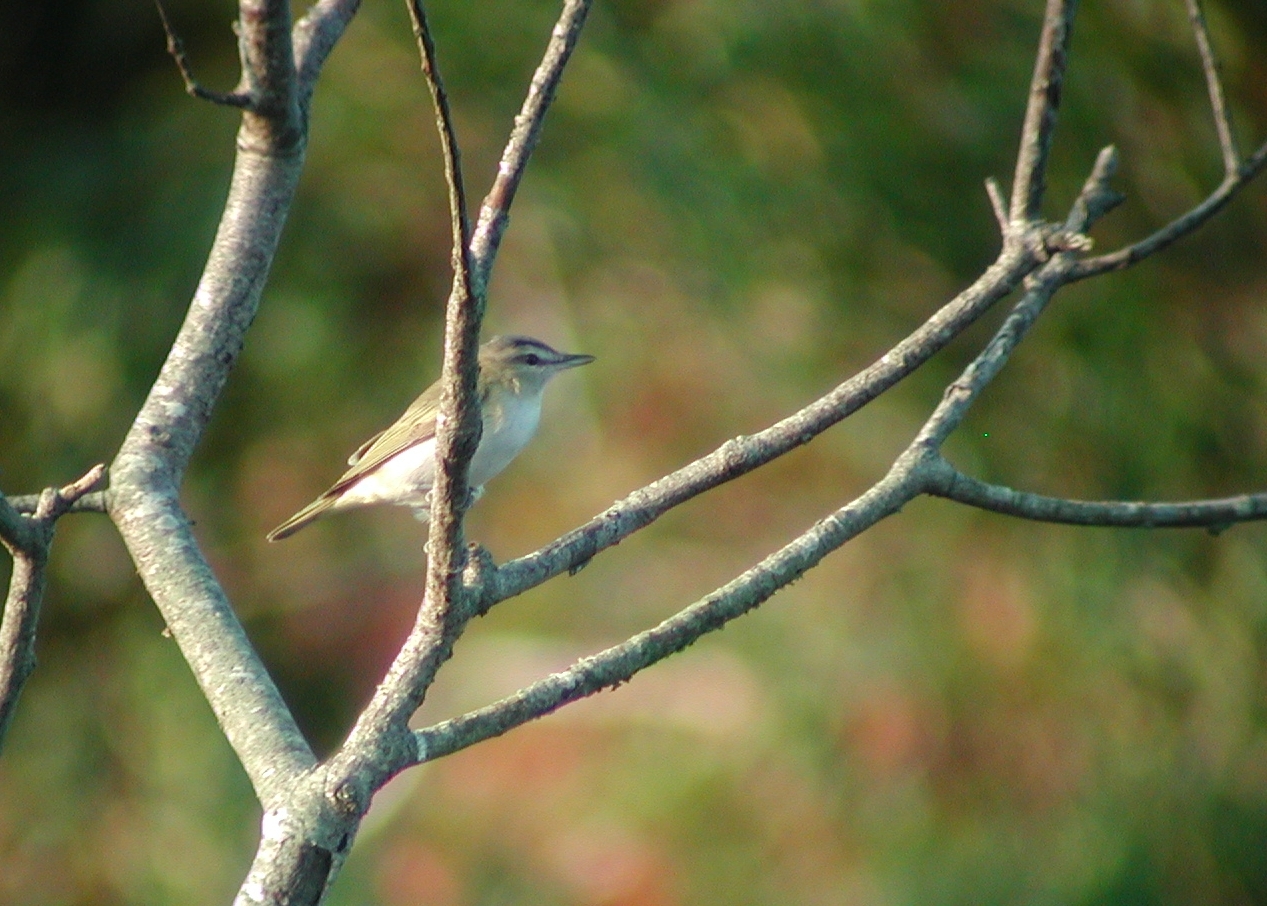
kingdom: Animalia
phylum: Chordata
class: Aves
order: Passeriformes
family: Vireonidae
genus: Vireo
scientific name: Vireo olivaceus
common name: Red-eyed vireo
